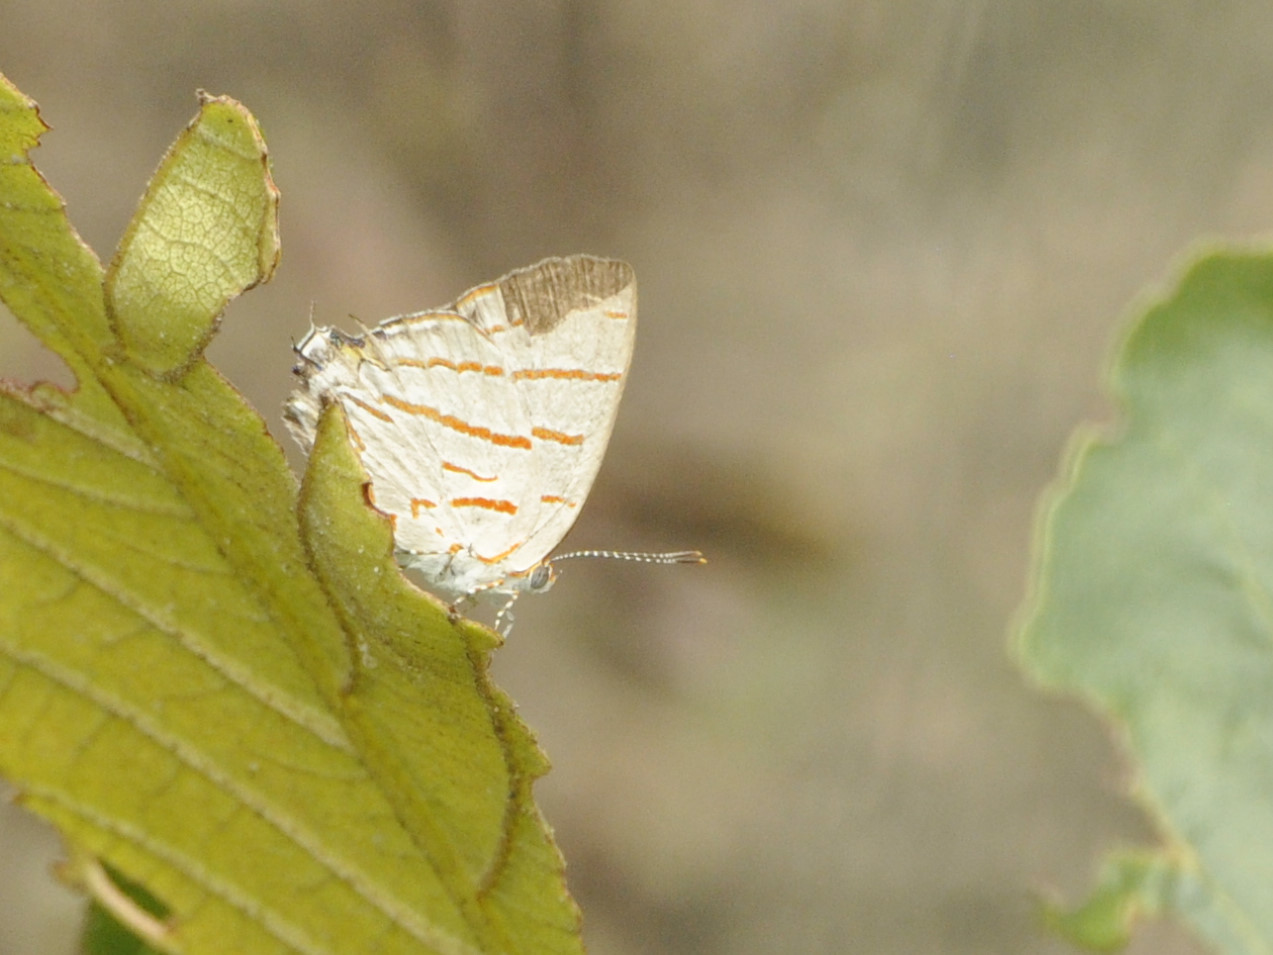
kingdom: Animalia
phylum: Arthropoda
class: Insecta
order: Lepidoptera
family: Lycaenidae
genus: Hemiolaus
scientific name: Hemiolaus caeculus
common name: Azure hairstreak
